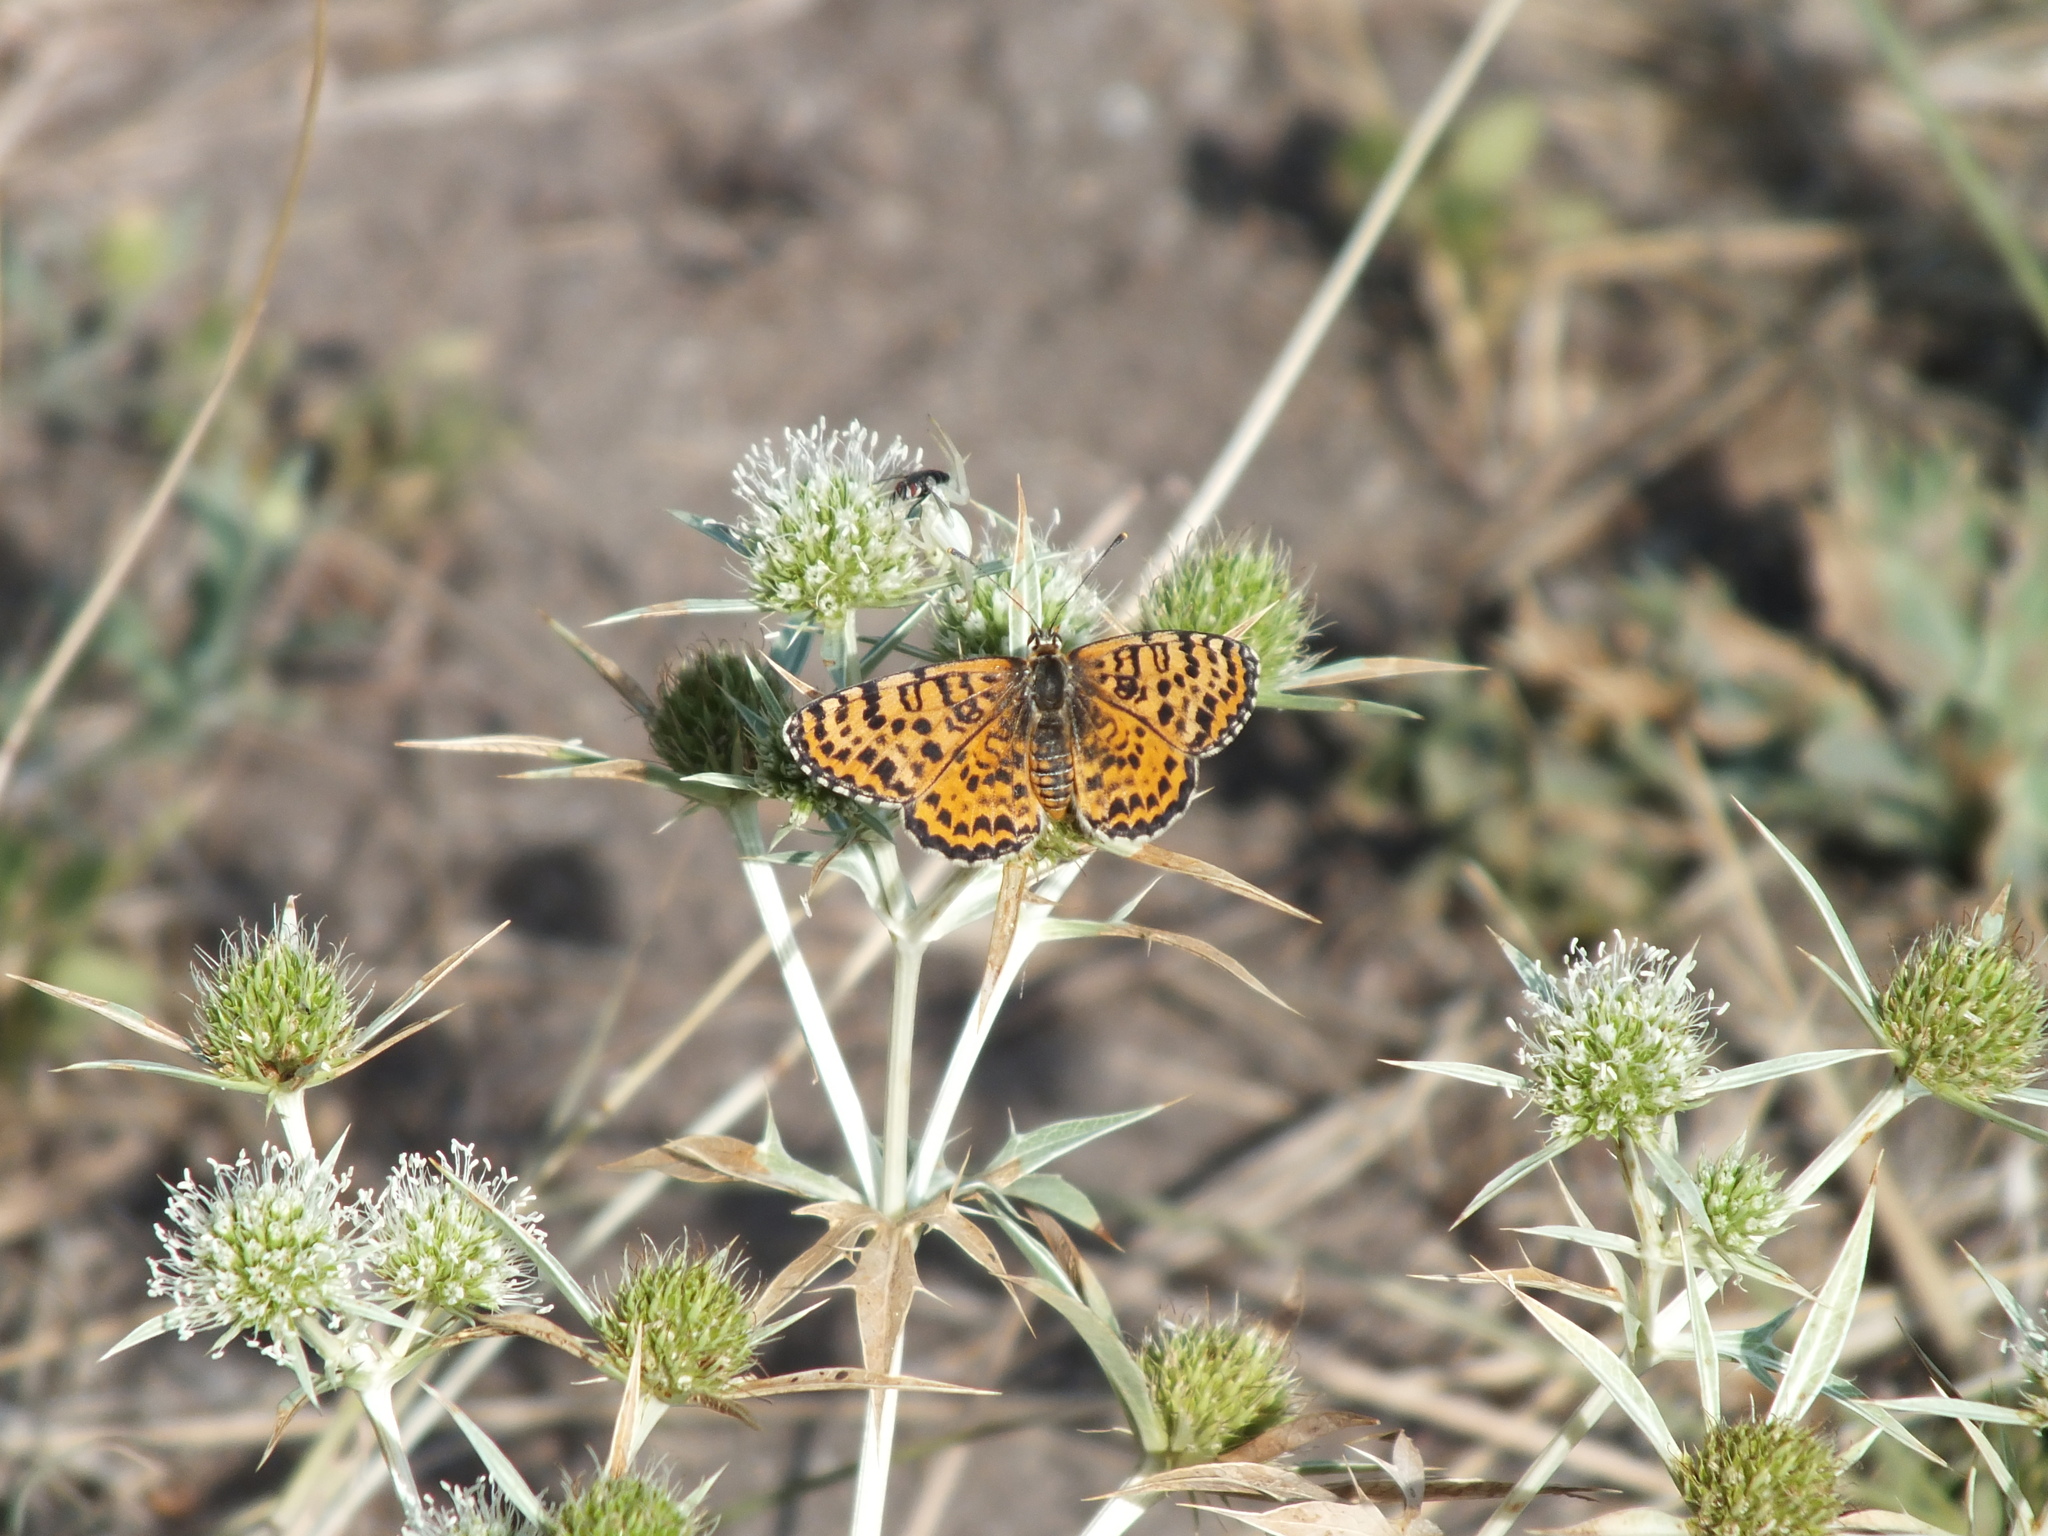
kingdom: Animalia
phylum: Arthropoda
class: Insecta
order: Lepidoptera
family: Nymphalidae
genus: Melitaea
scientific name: Melitaea didyma
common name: Spotted fritillary
